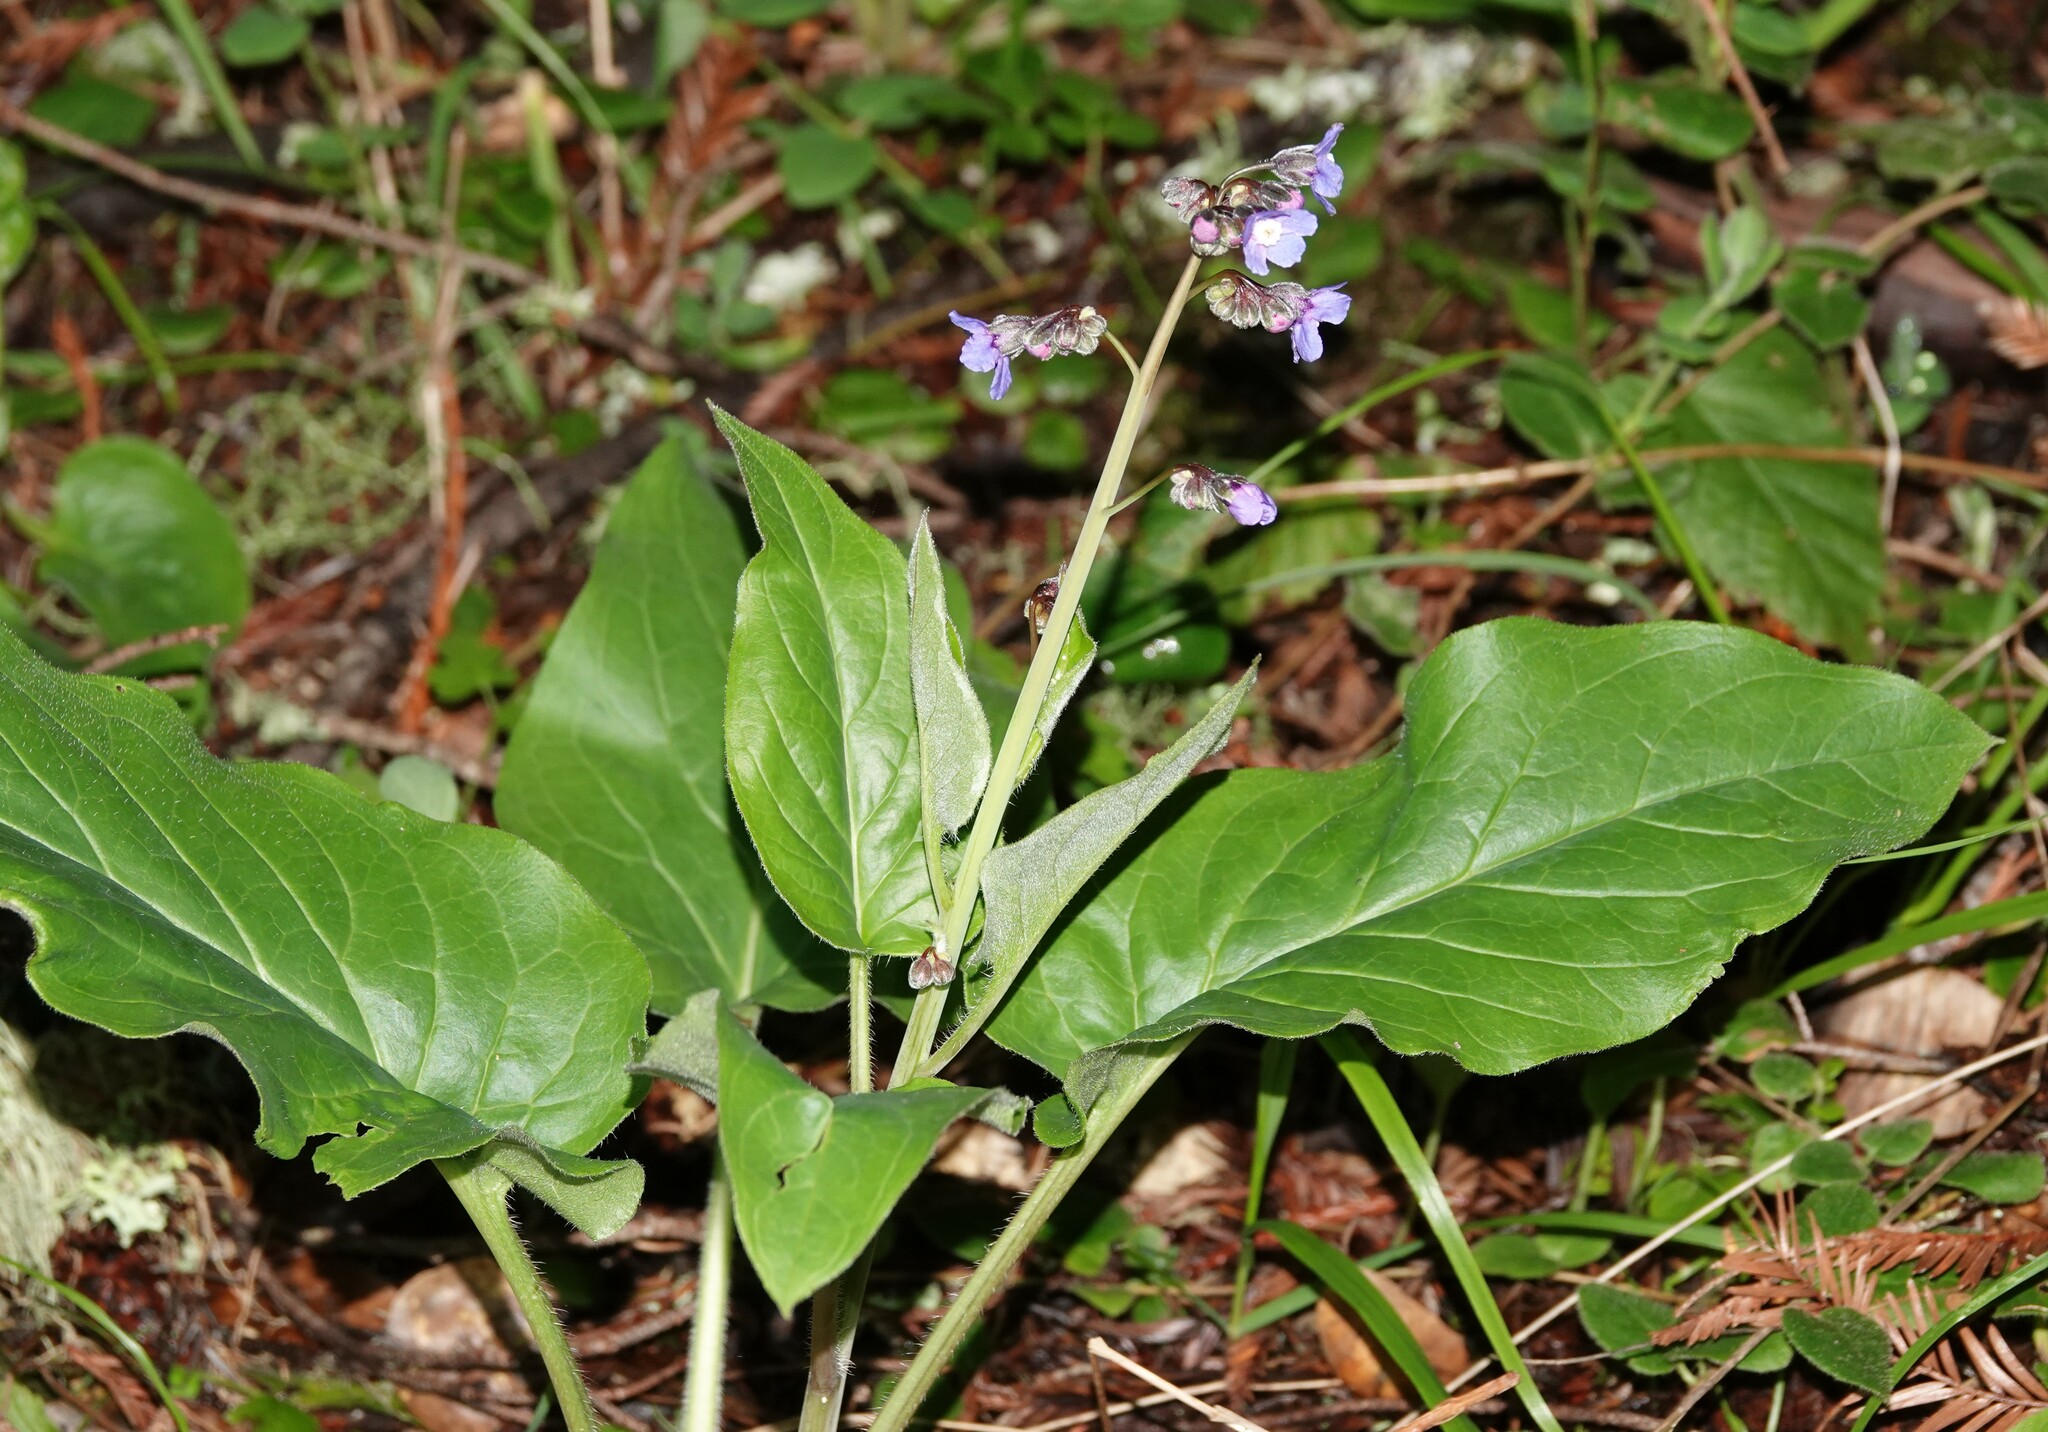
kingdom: Plantae
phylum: Tracheophyta
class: Magnoliopsida
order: Boraginales
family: Boraginaceae
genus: Adelinia
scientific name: Adelinia grande
